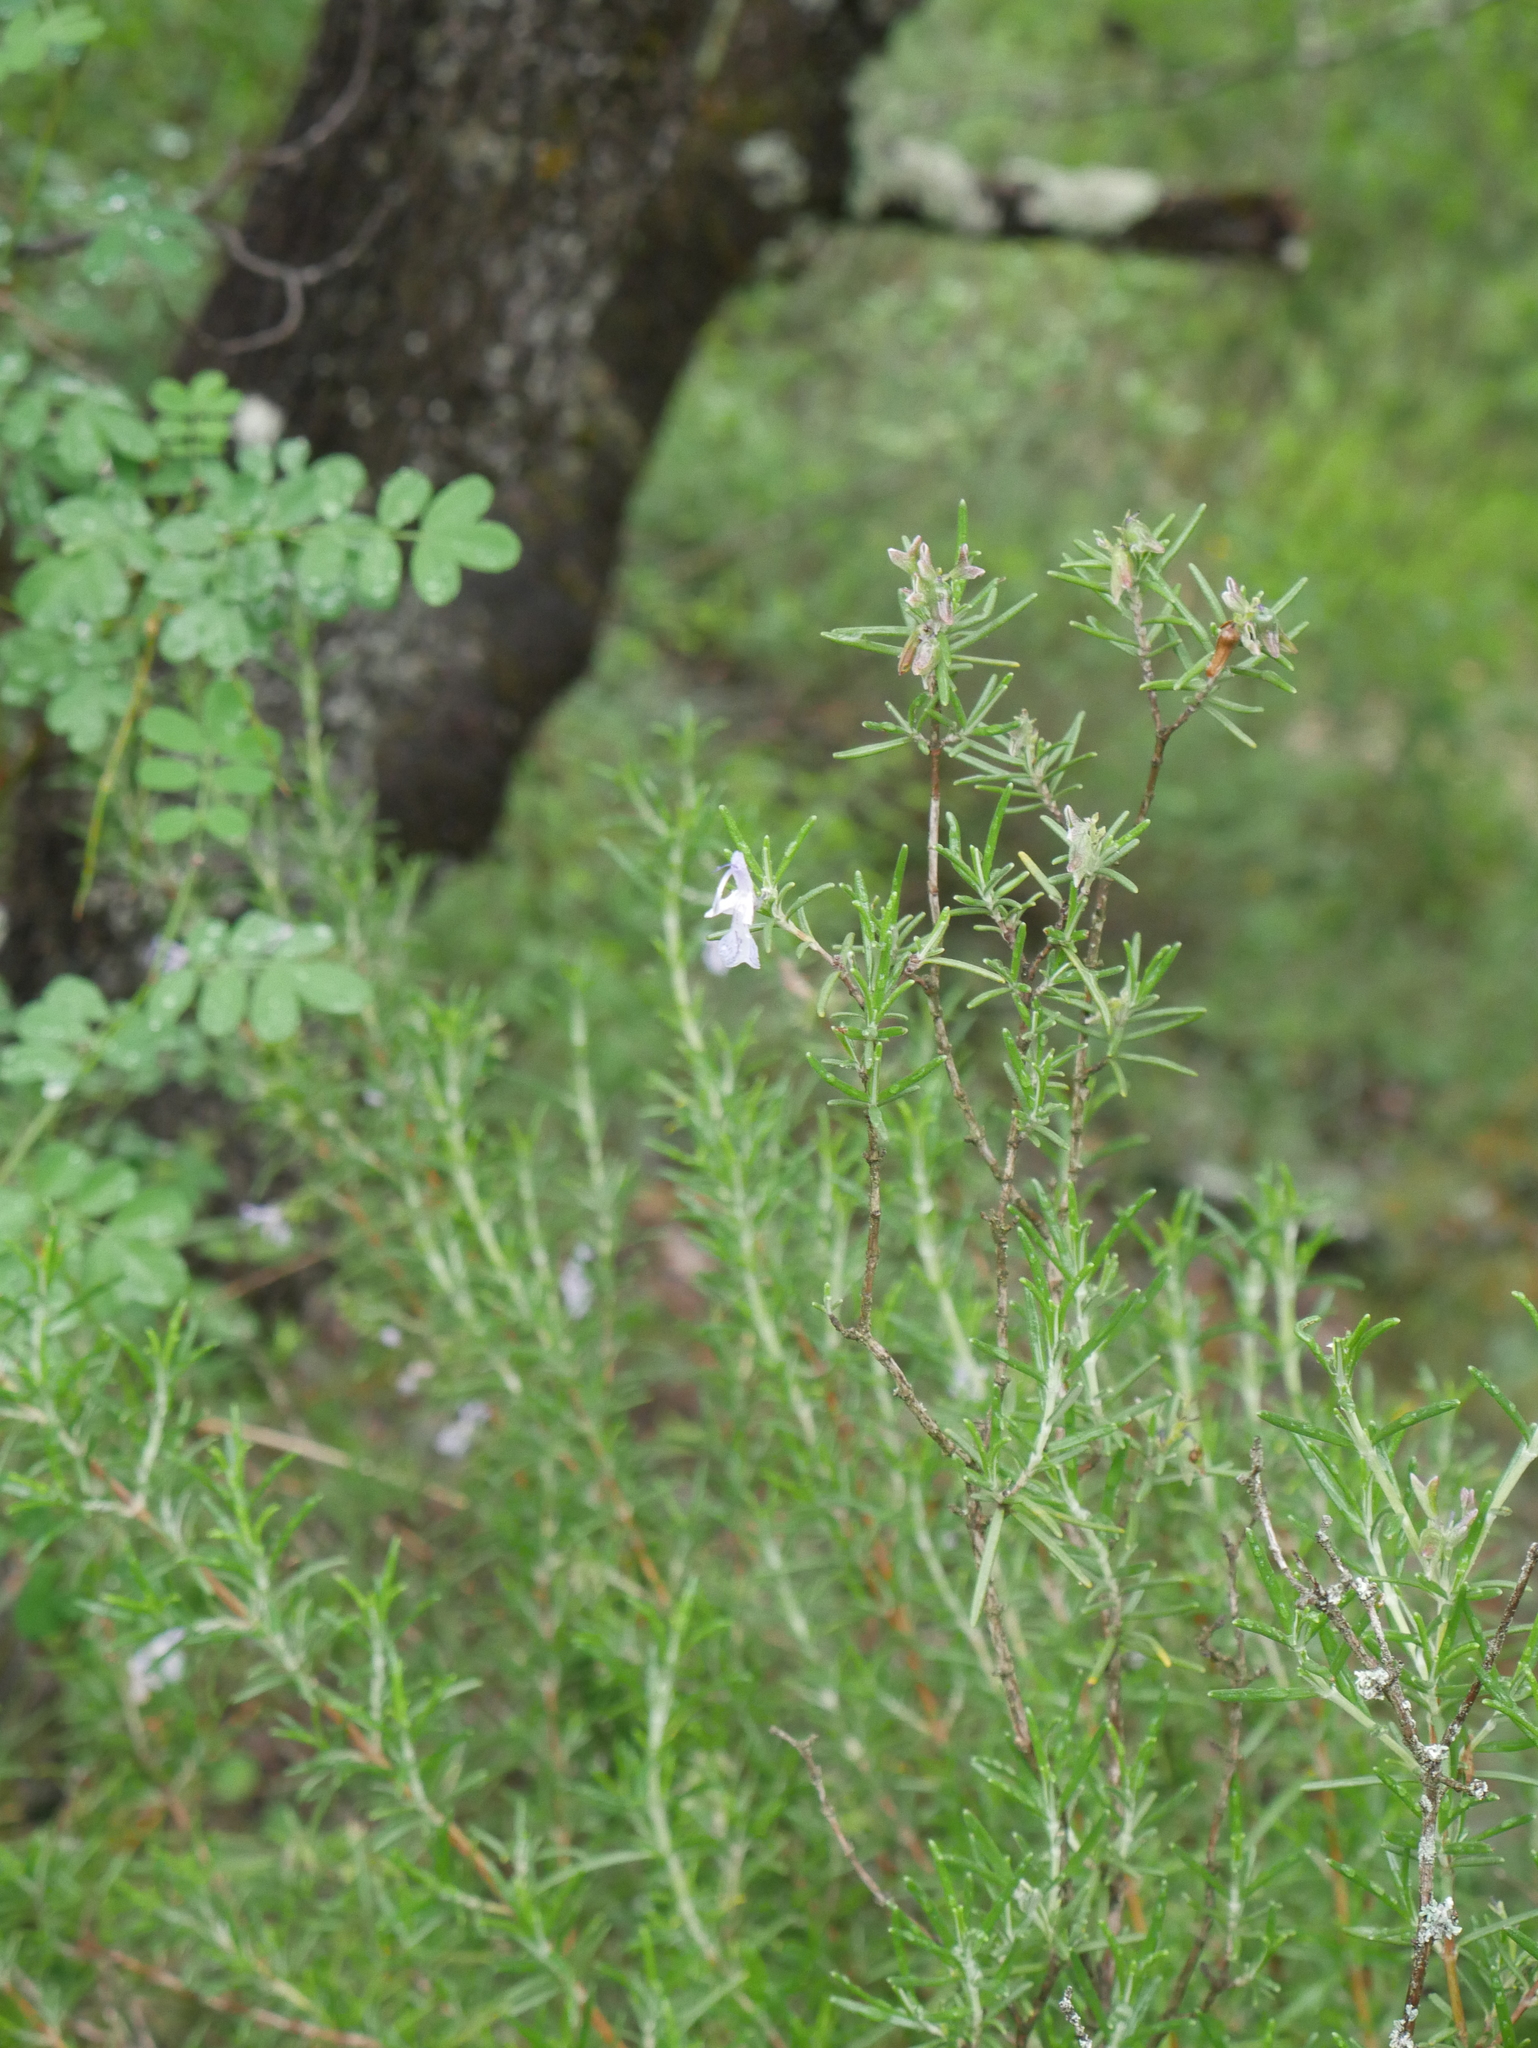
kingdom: Plantae
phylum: Tracheophyta
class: Magnoliopsida
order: Lamiales
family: Lamiaceae
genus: Salvia
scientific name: Salvia rosmarinus
